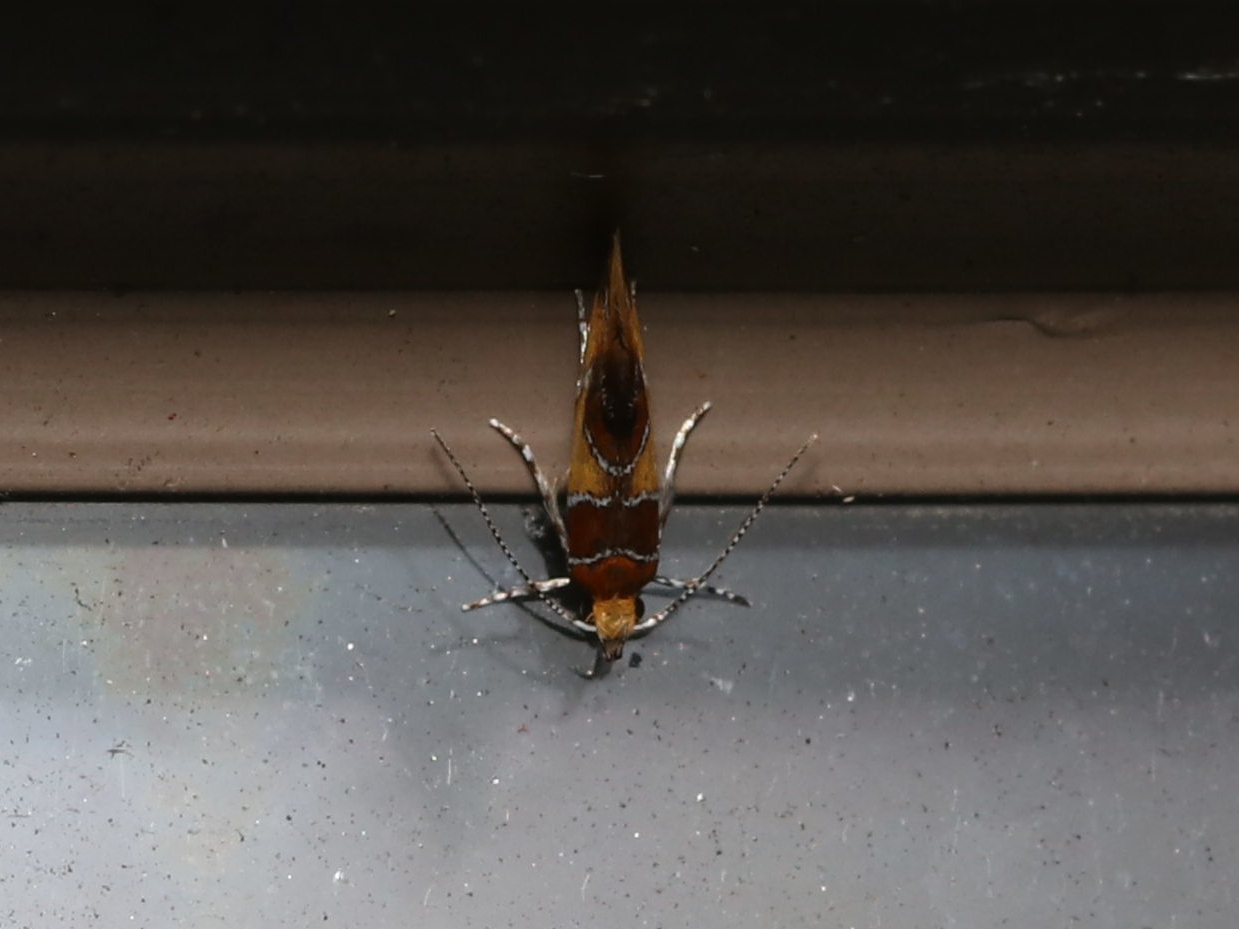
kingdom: Animalia
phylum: Arthropoda
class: Insecta
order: Lepidoptera
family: Oecophoridae
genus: Callima
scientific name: Callima argenticinctella
